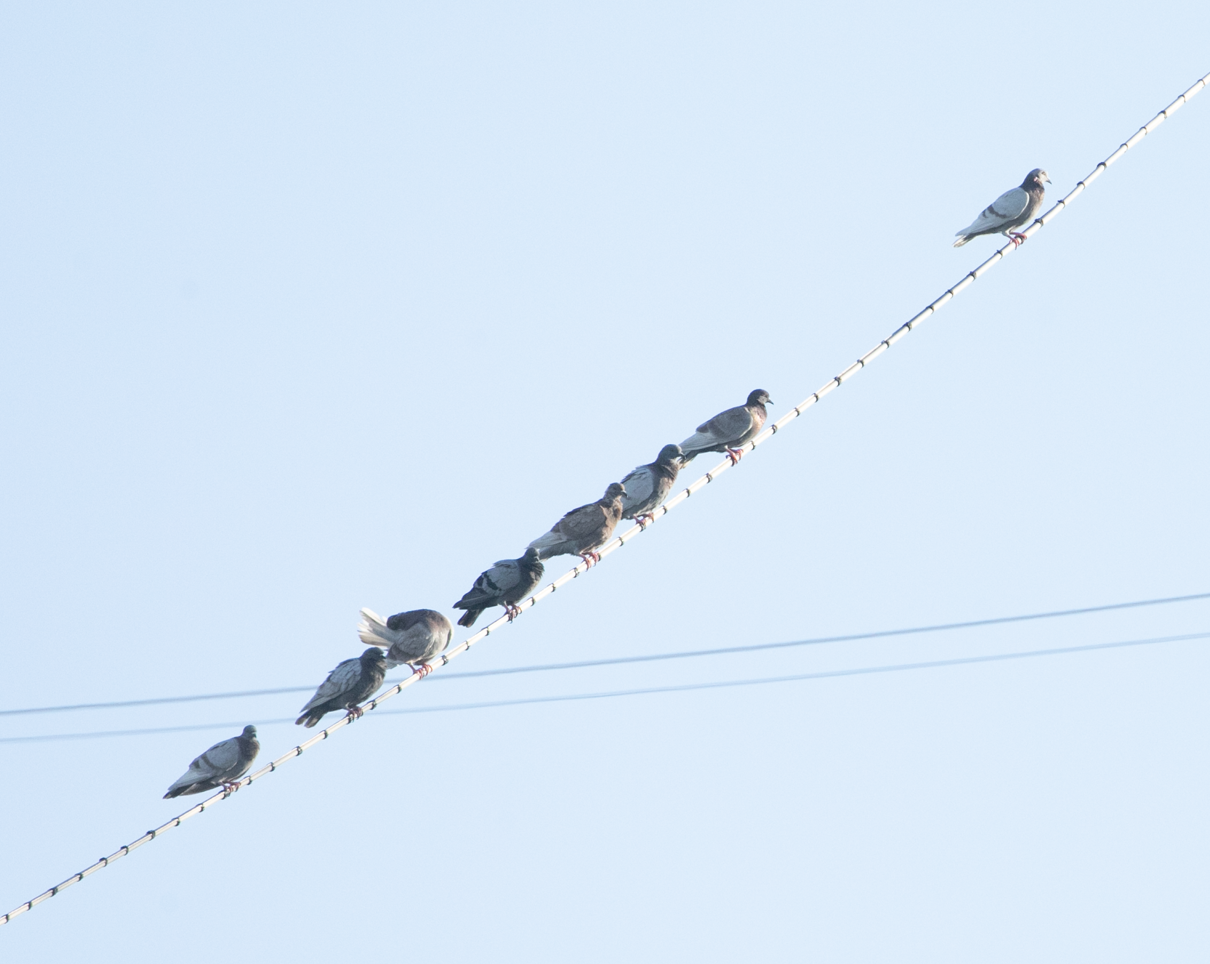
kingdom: Animalia
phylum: Chordata
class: Aves
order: Columbiformes
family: Columbidae
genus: Columba
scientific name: Columba livia
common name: Rock pigeon
